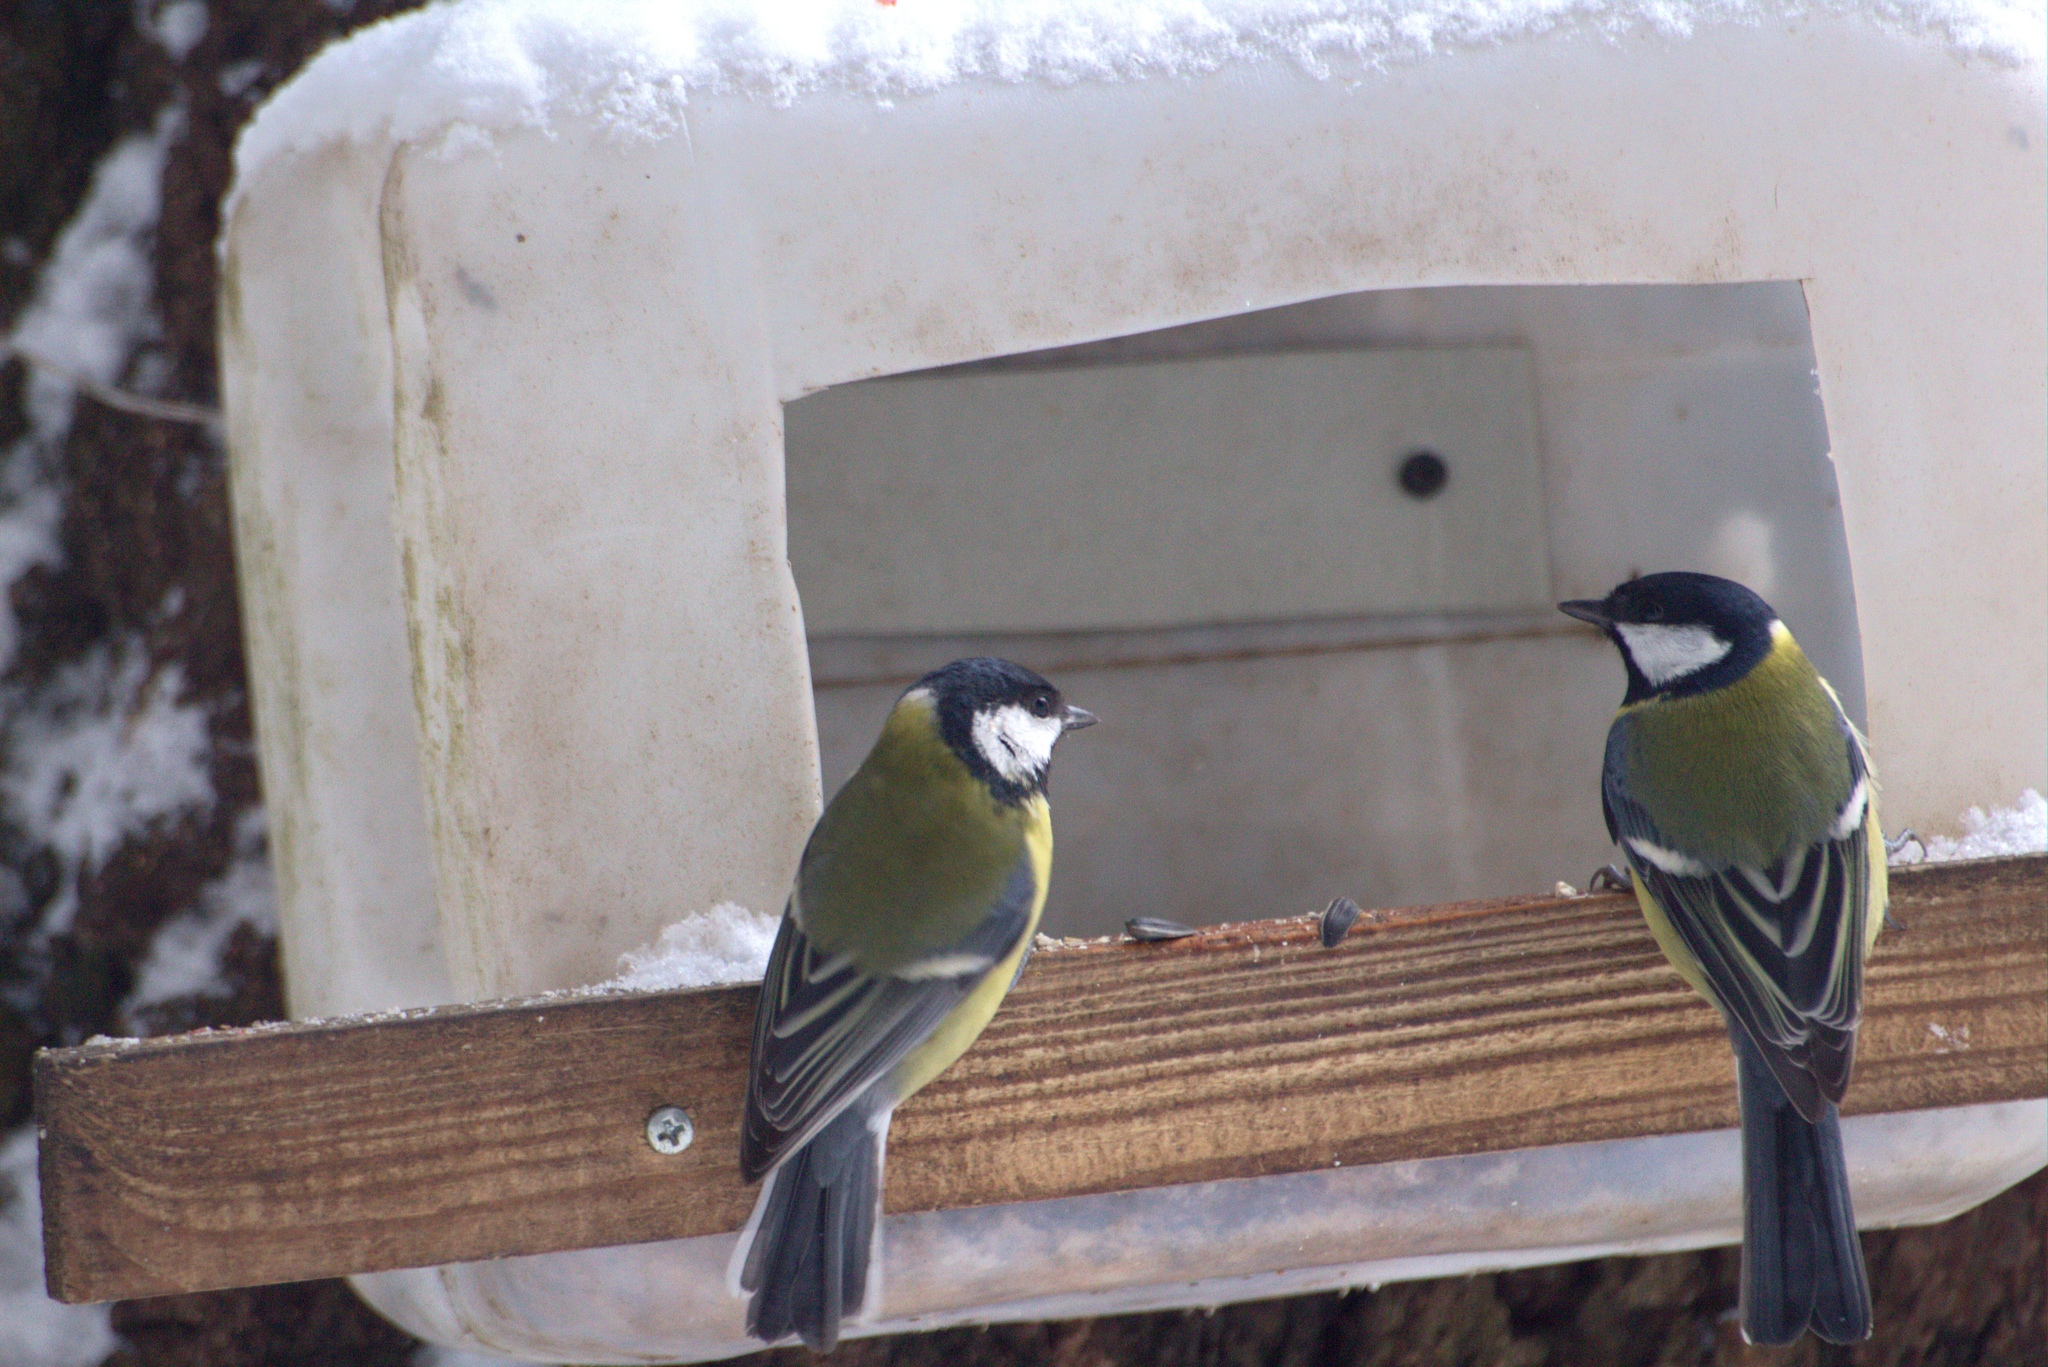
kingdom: Animalia
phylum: Chordata
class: Aves
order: Passeriformes
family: Paridae
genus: Parus
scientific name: Parus major
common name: Great tit
